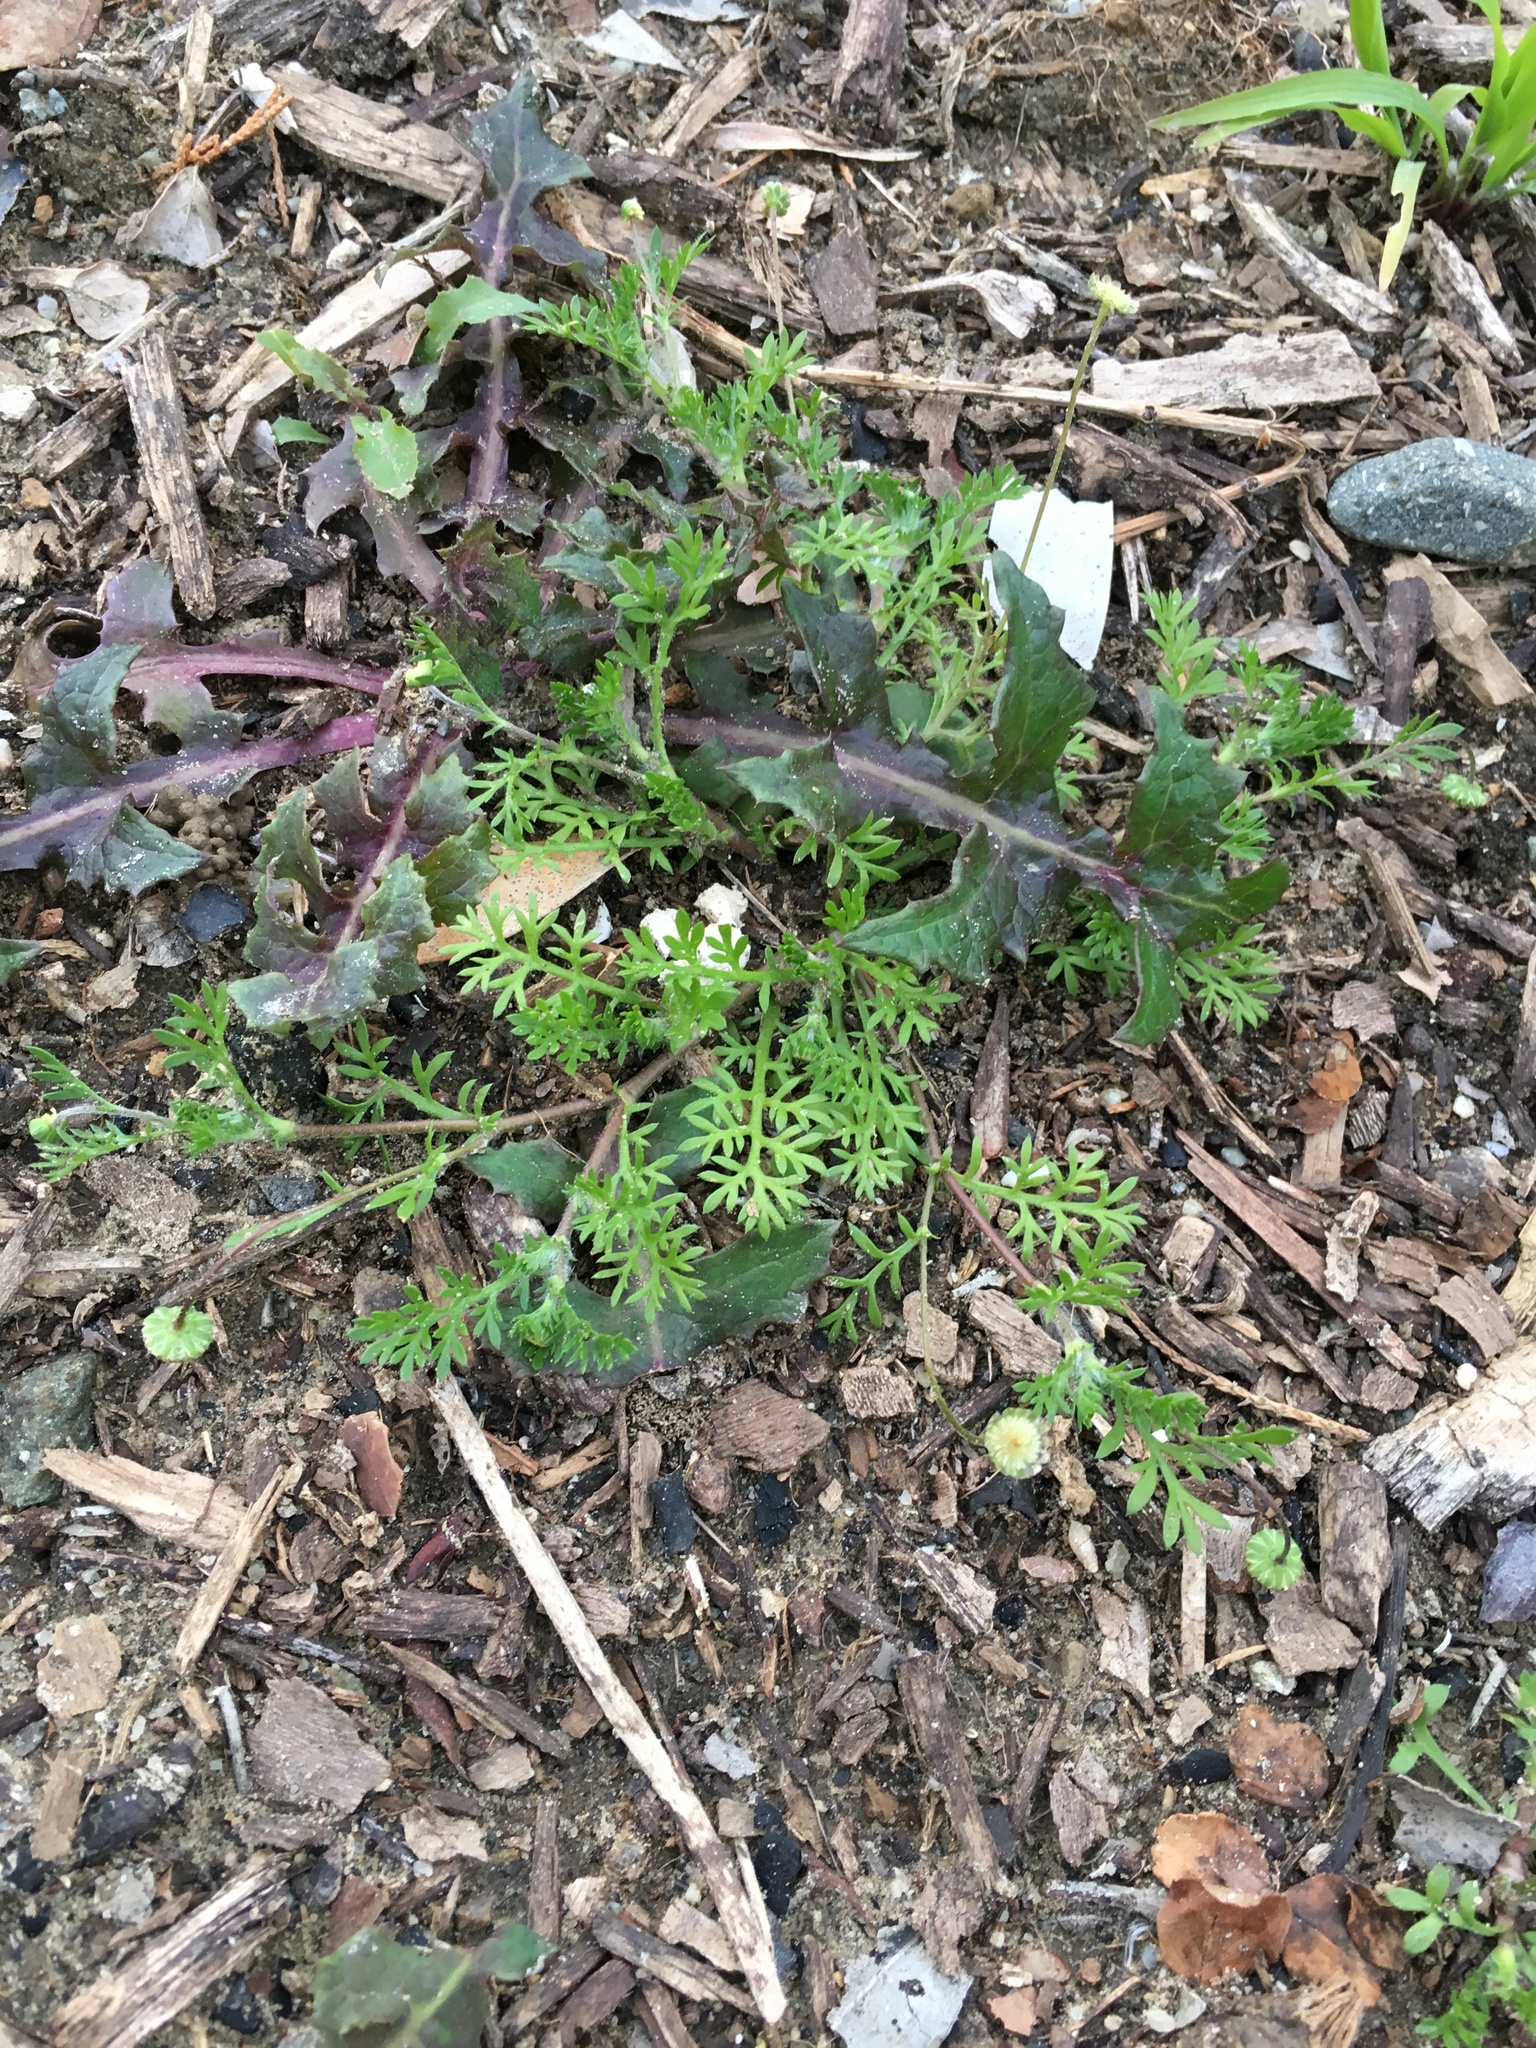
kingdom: Plantae
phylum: Tracheophyta
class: Magnoliopsida
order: Asterales
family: Asteraceae
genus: Cotula
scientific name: Cotula australis
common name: Australian waterbuttons
